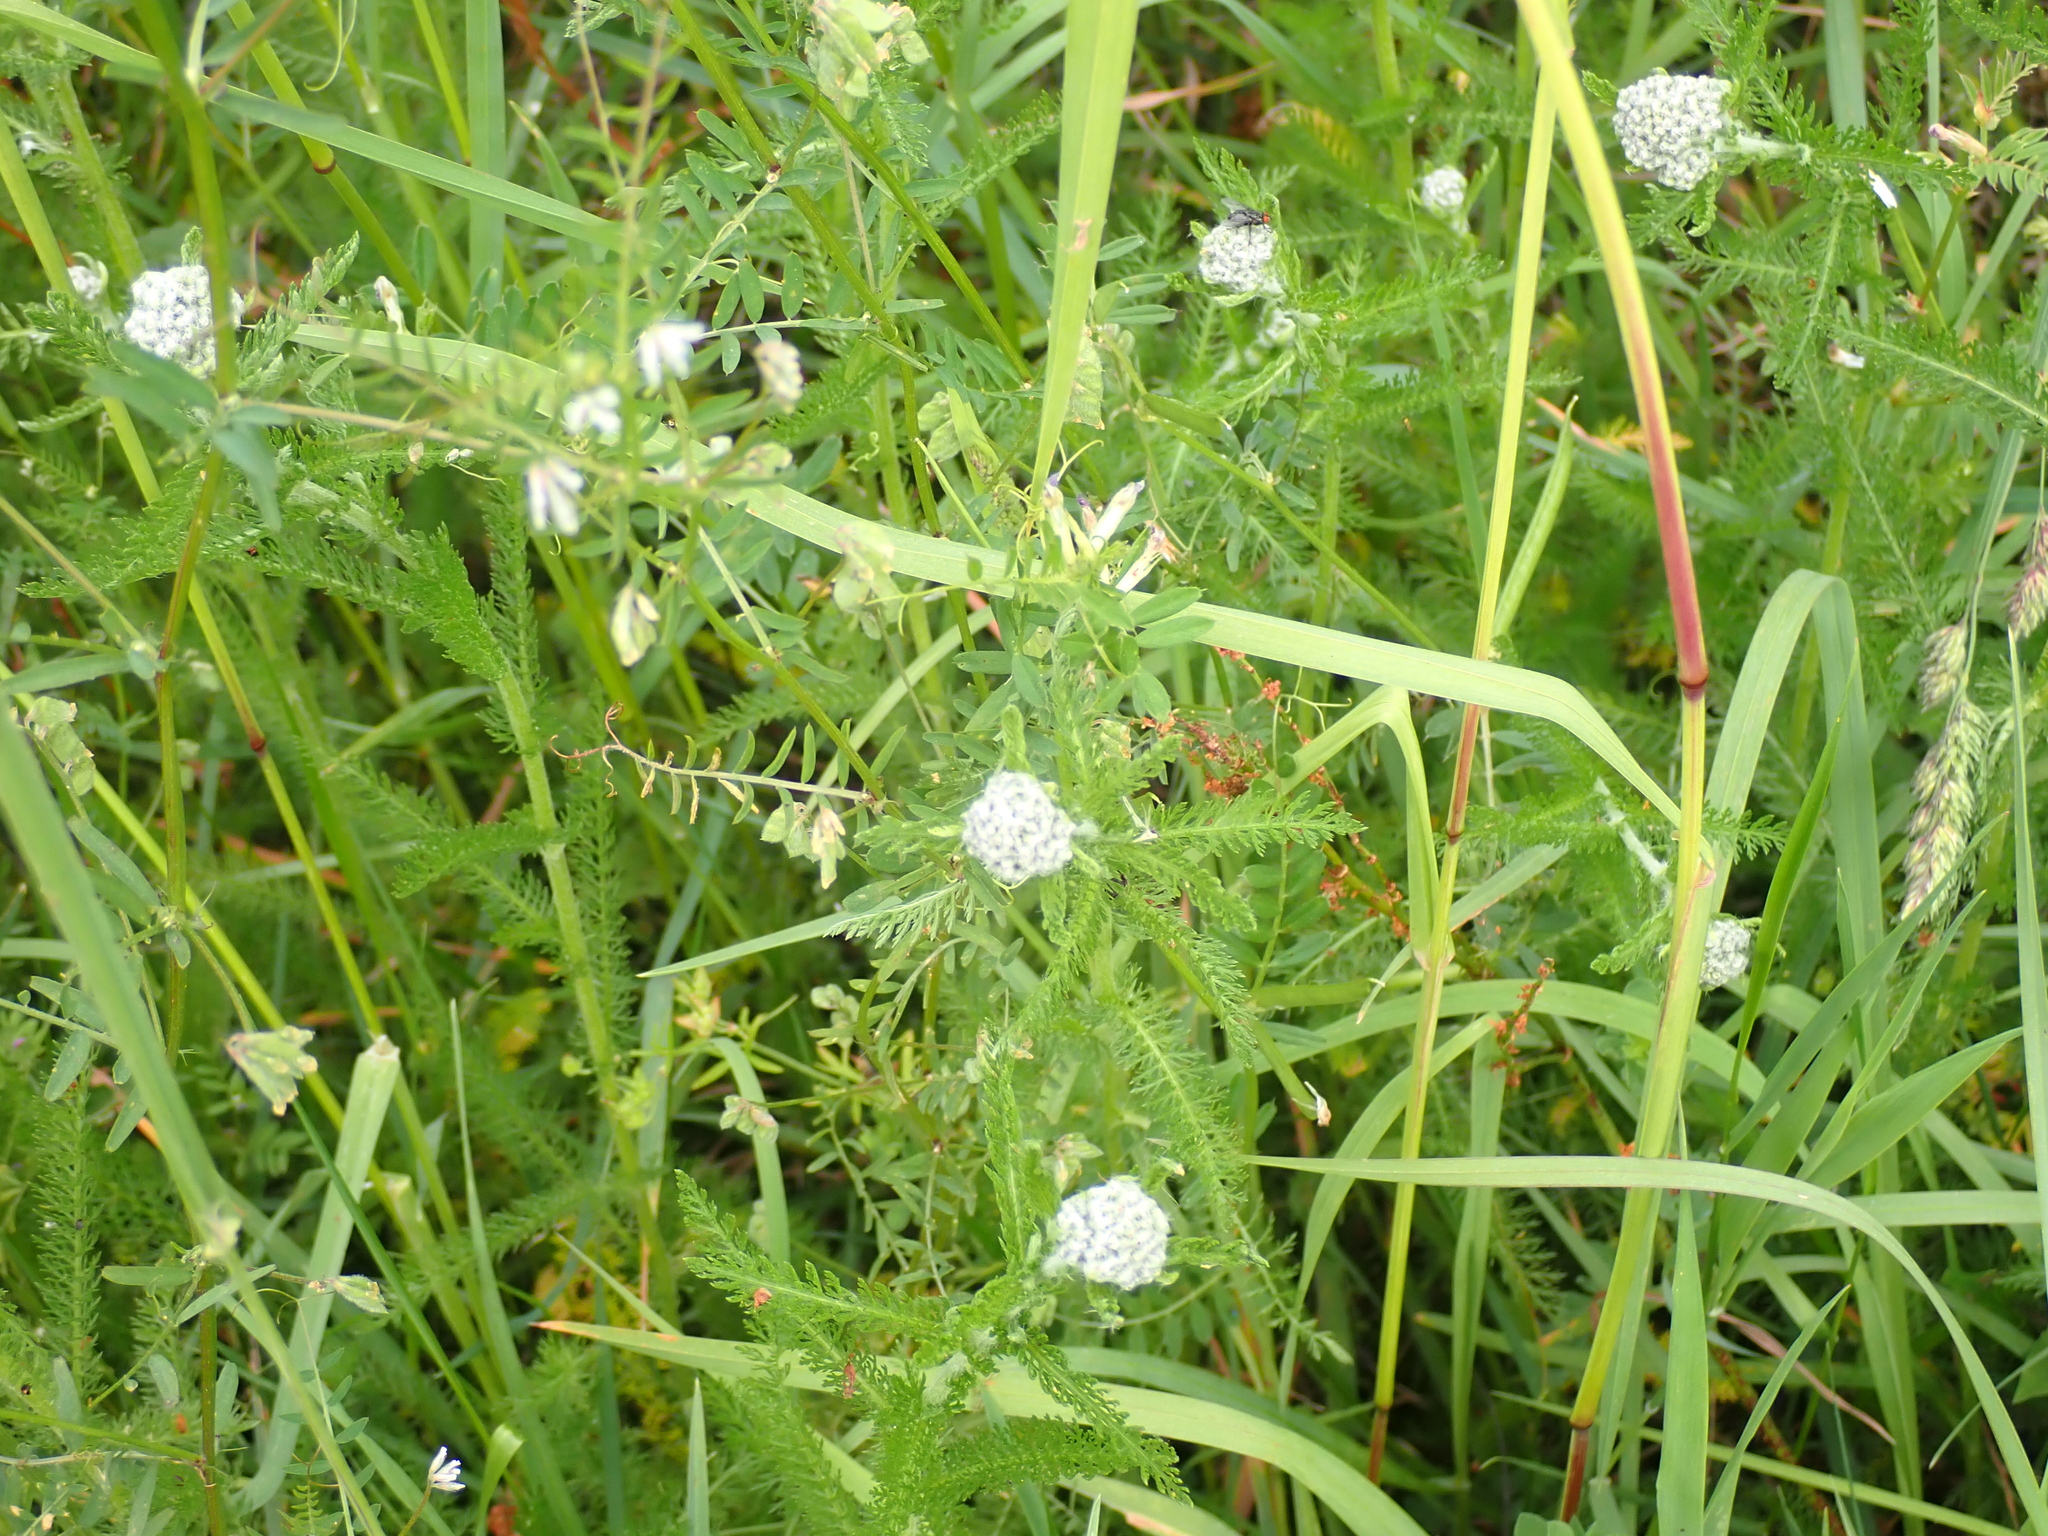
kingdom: Plantae
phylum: Tracheophyta
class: Magnoliopsida
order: Asterales
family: Asteraceae
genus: Achillea
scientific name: Achillea millefolium
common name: Yarrow
